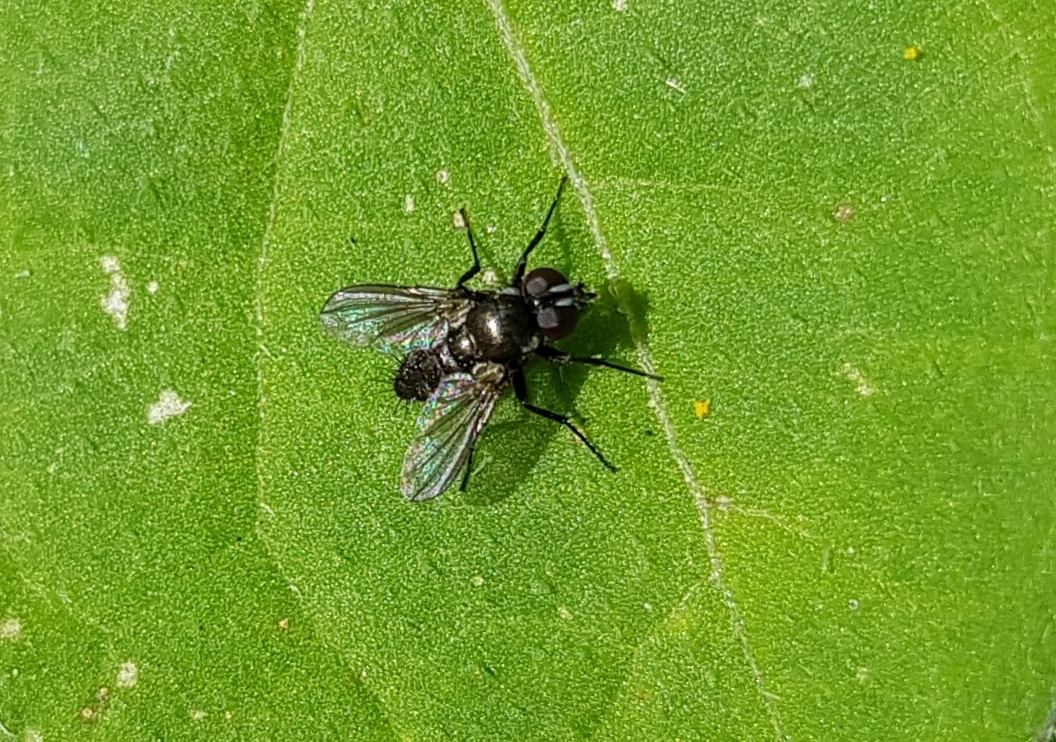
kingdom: Animalia
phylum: Arthropoda
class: Insecta
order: Diptera
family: Calliphoridae
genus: Rhinophora
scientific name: Rhinophora lepida
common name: Pouting woodlouse-fly
